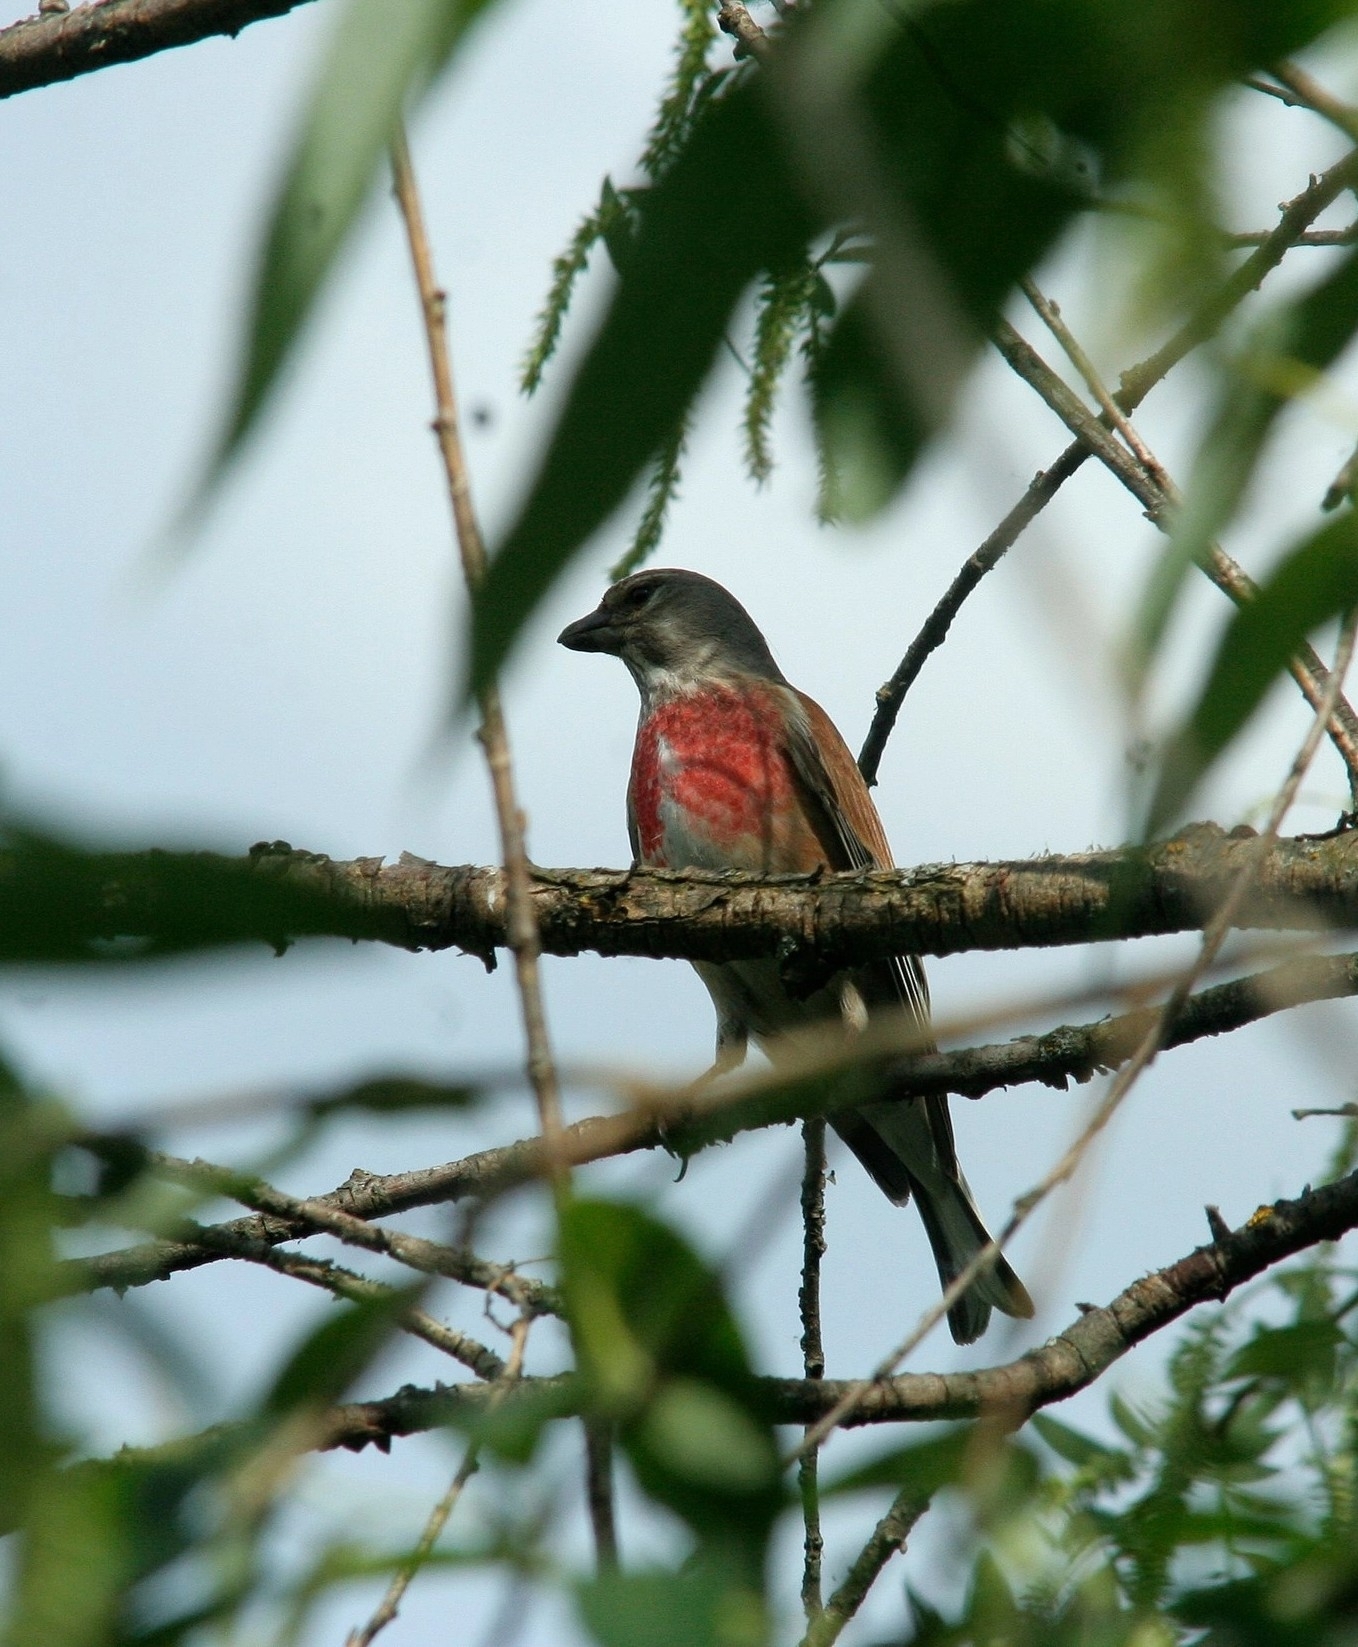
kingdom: Animalia
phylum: Chordata
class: Aves
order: Passeriformes
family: Fringillidae
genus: Linaria
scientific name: Linaria cannabina
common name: Common linnet
